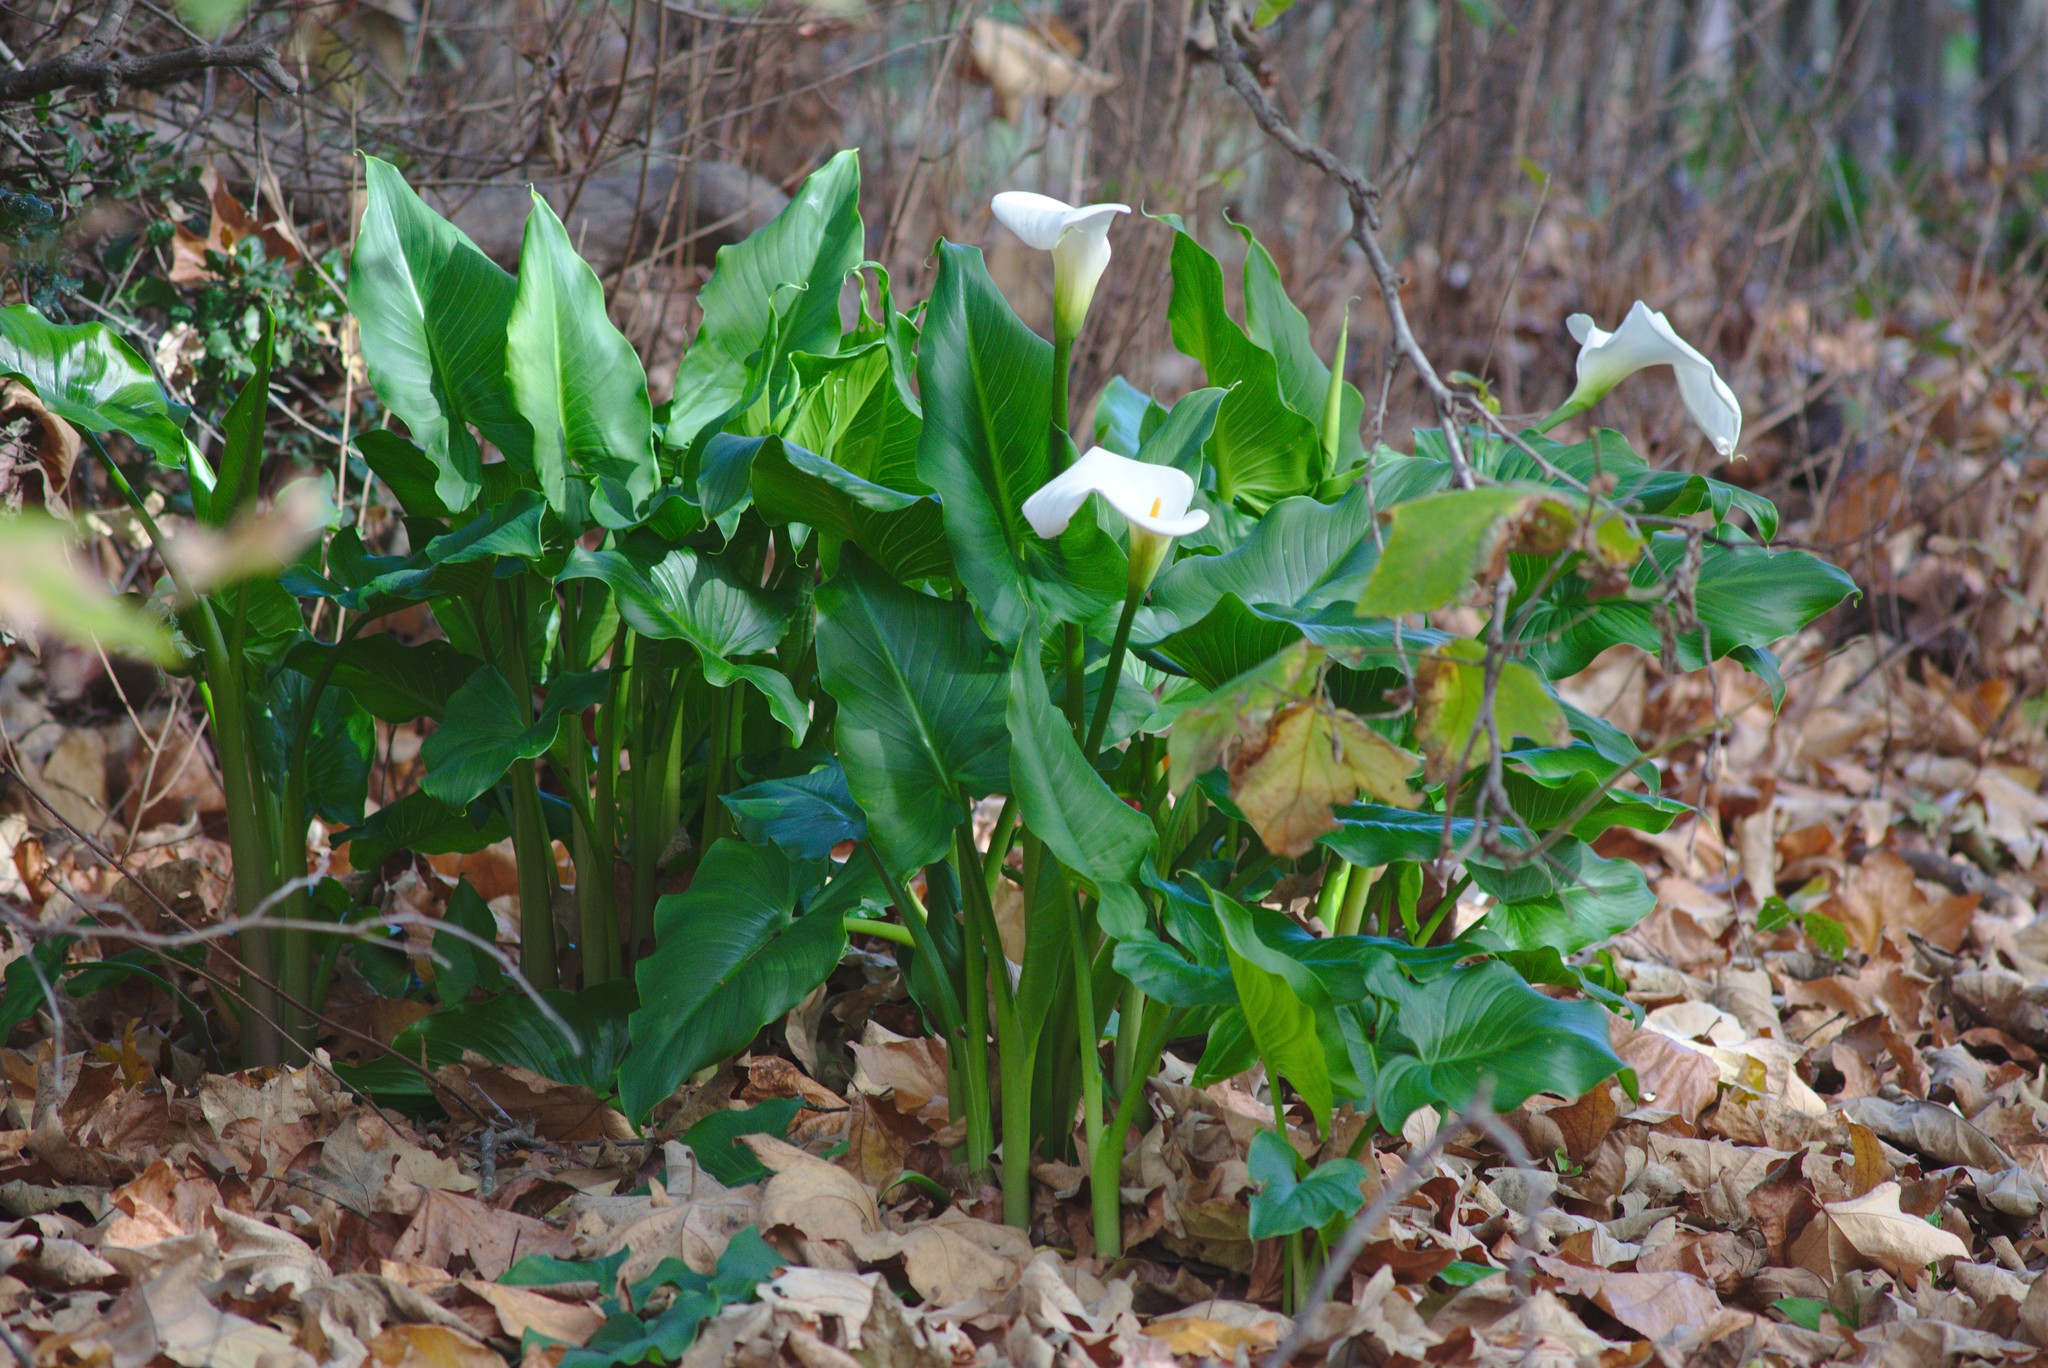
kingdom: Plantae
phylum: Tracheophyta
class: Liliopsida
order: Alismatales
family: Araceae
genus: Zantedeschia
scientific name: Zantedeschia aethiopica
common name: Altar-lily
